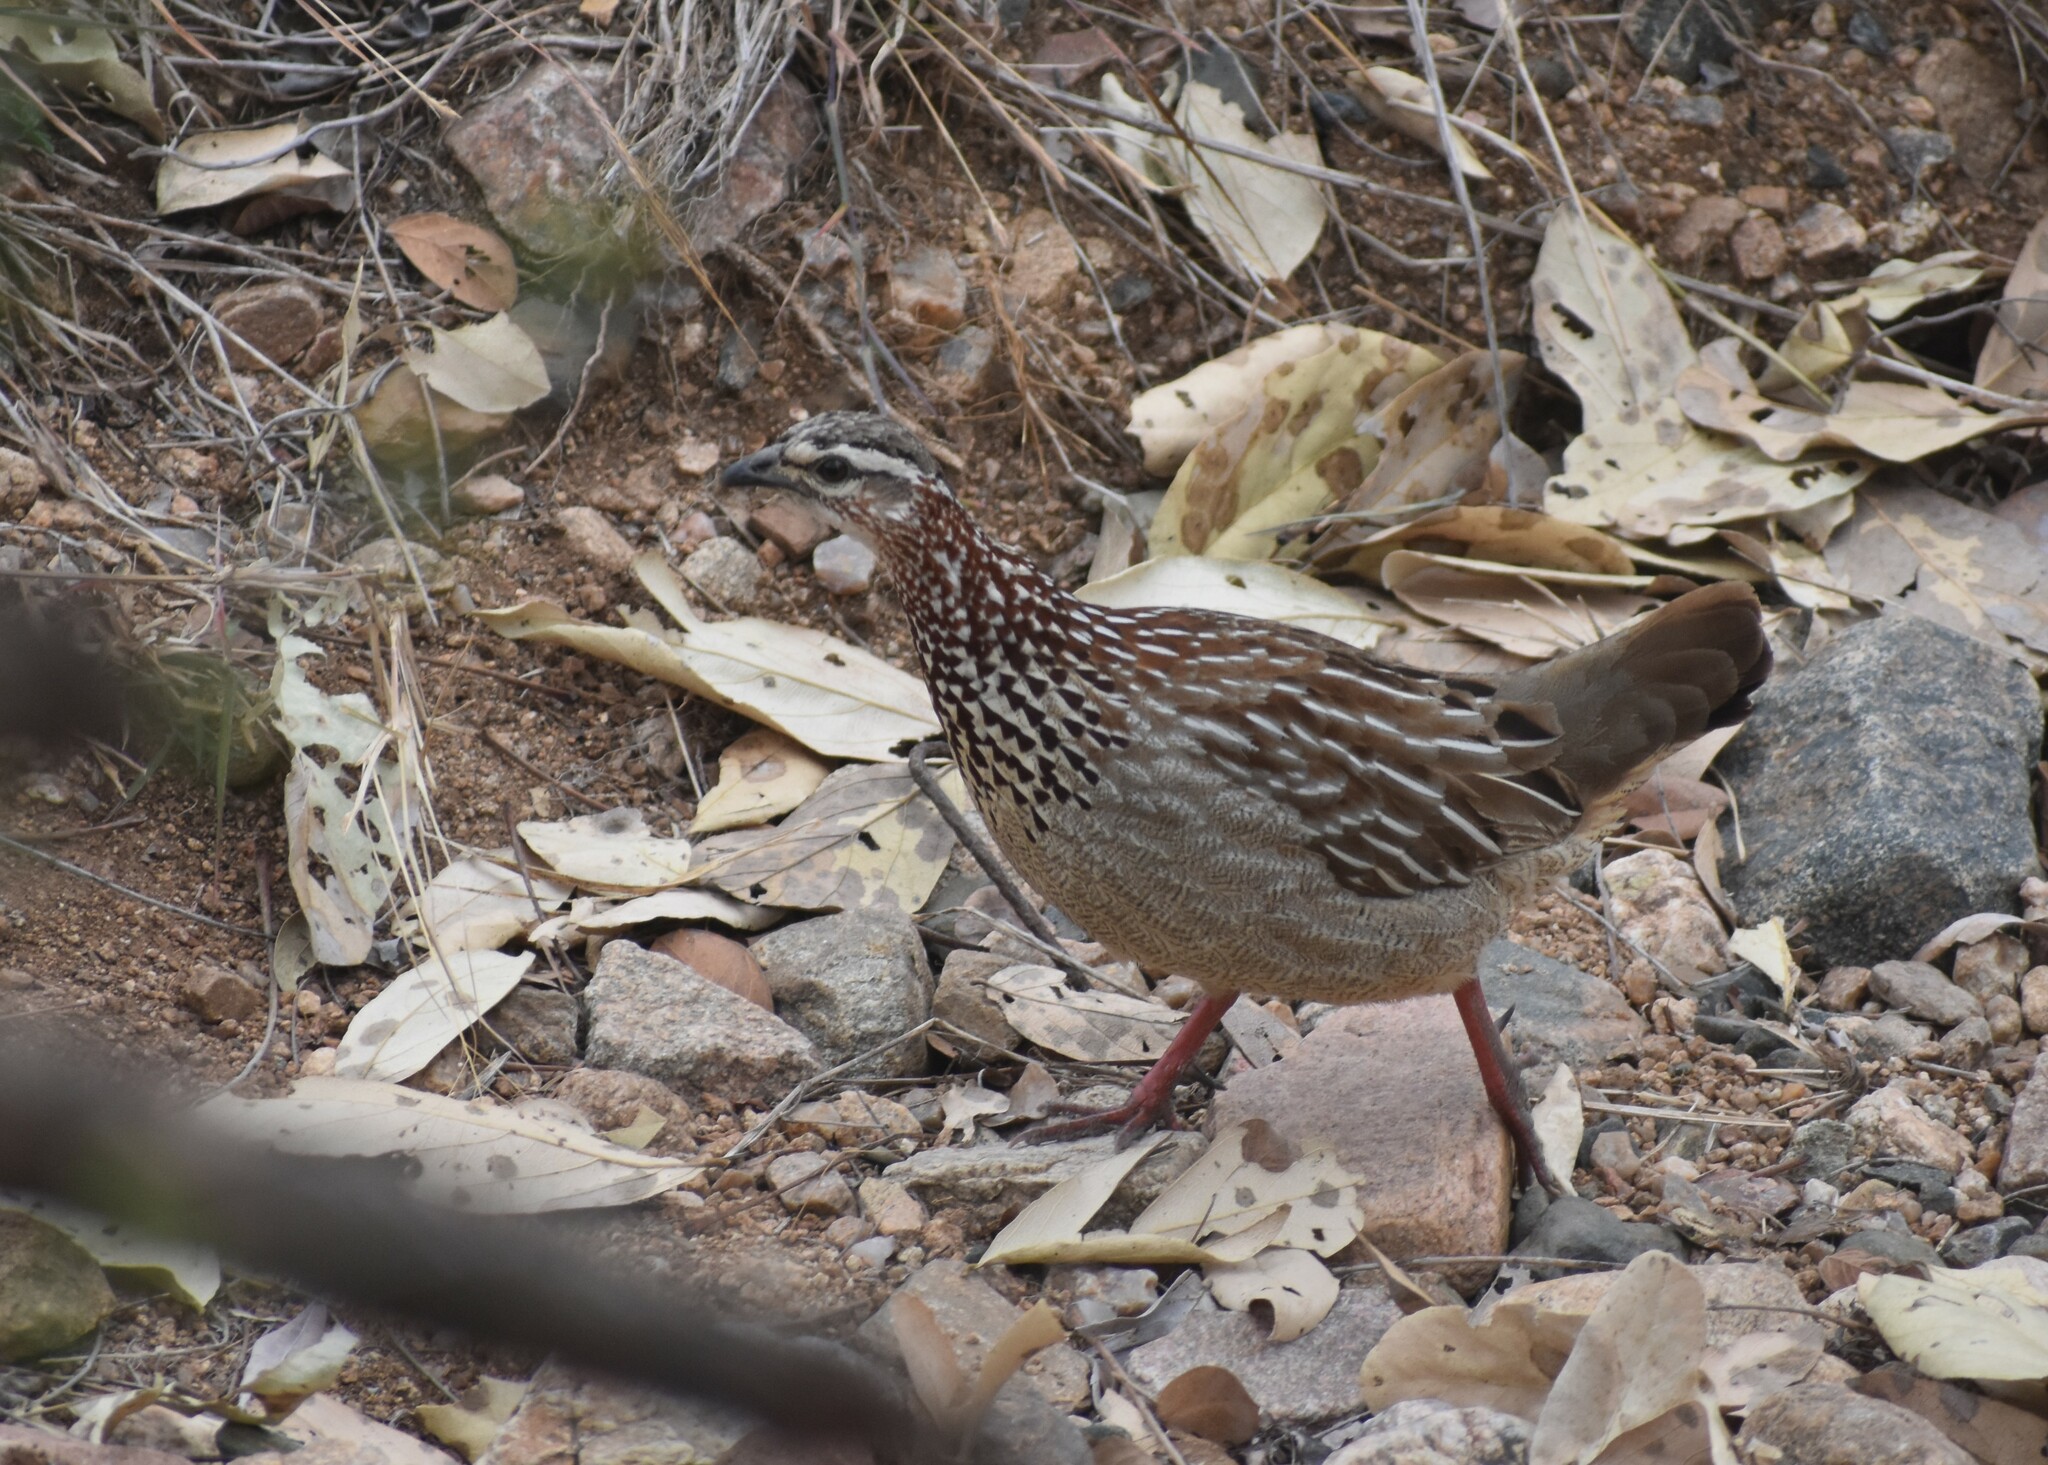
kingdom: Animalia
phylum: Chordata
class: Aves
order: Galliformes
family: Phasianidae
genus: Ortygornis
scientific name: Ortygornis sephaena
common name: Crested francolin
